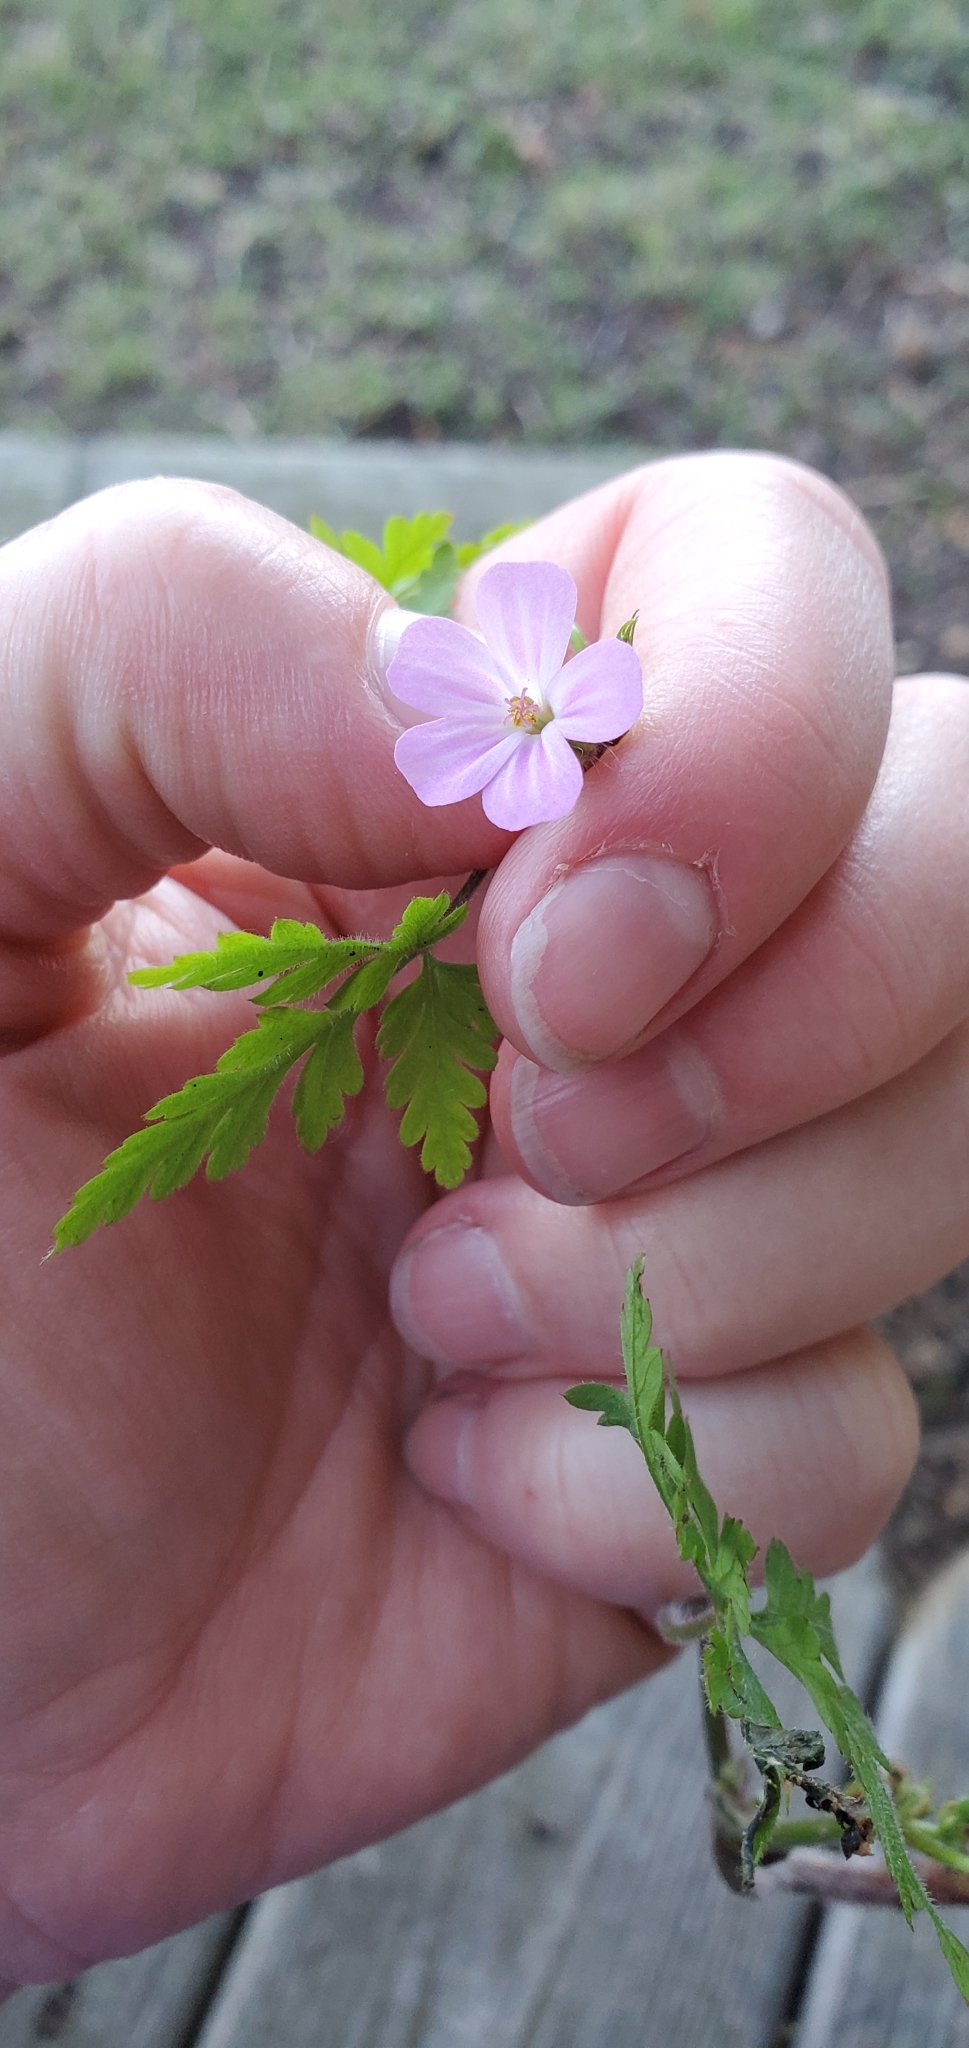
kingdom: Plantae
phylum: Tracheophyta
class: Magnoliopsida
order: Geraniales
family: Geraniaceae
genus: Geranium
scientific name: Geranium robertianum
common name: Herb-robert
